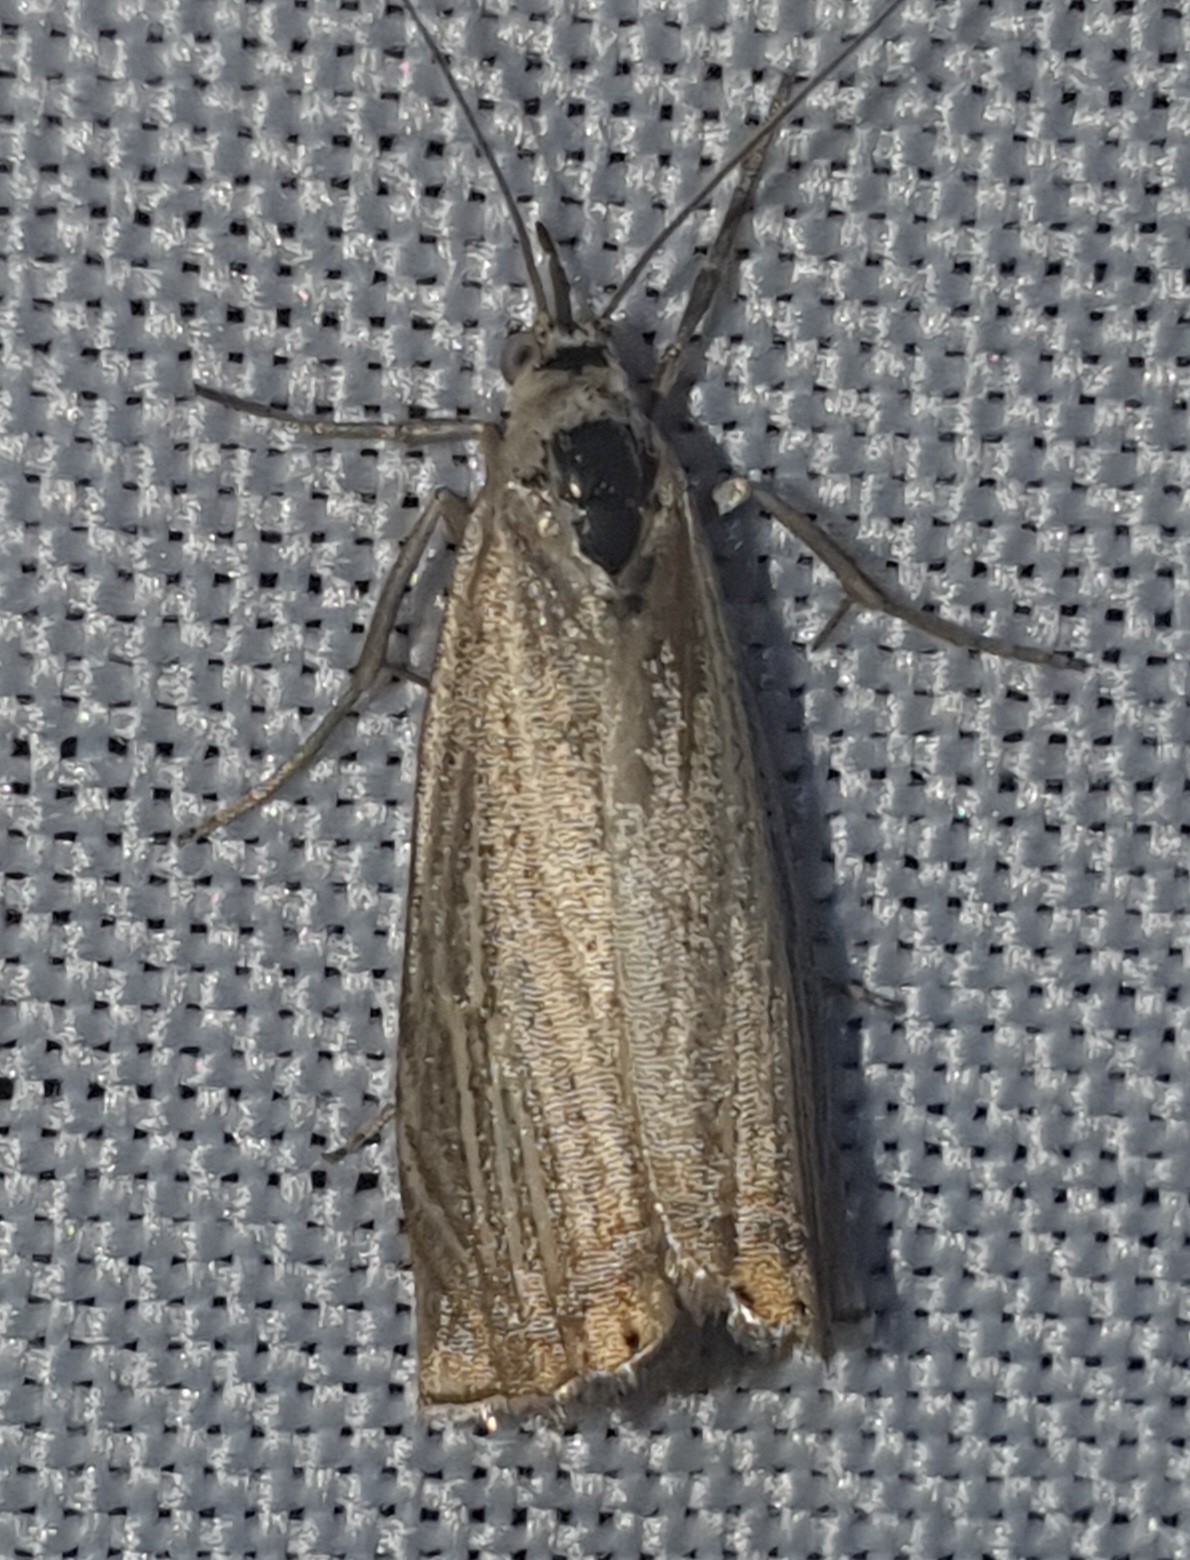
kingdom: Animalia
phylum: Arthropoda
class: Insecta
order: Lepidoptera
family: Crambidae
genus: Chrysoteuchia
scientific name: Chrysoteuchia culmella
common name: Garden grass-veneer
